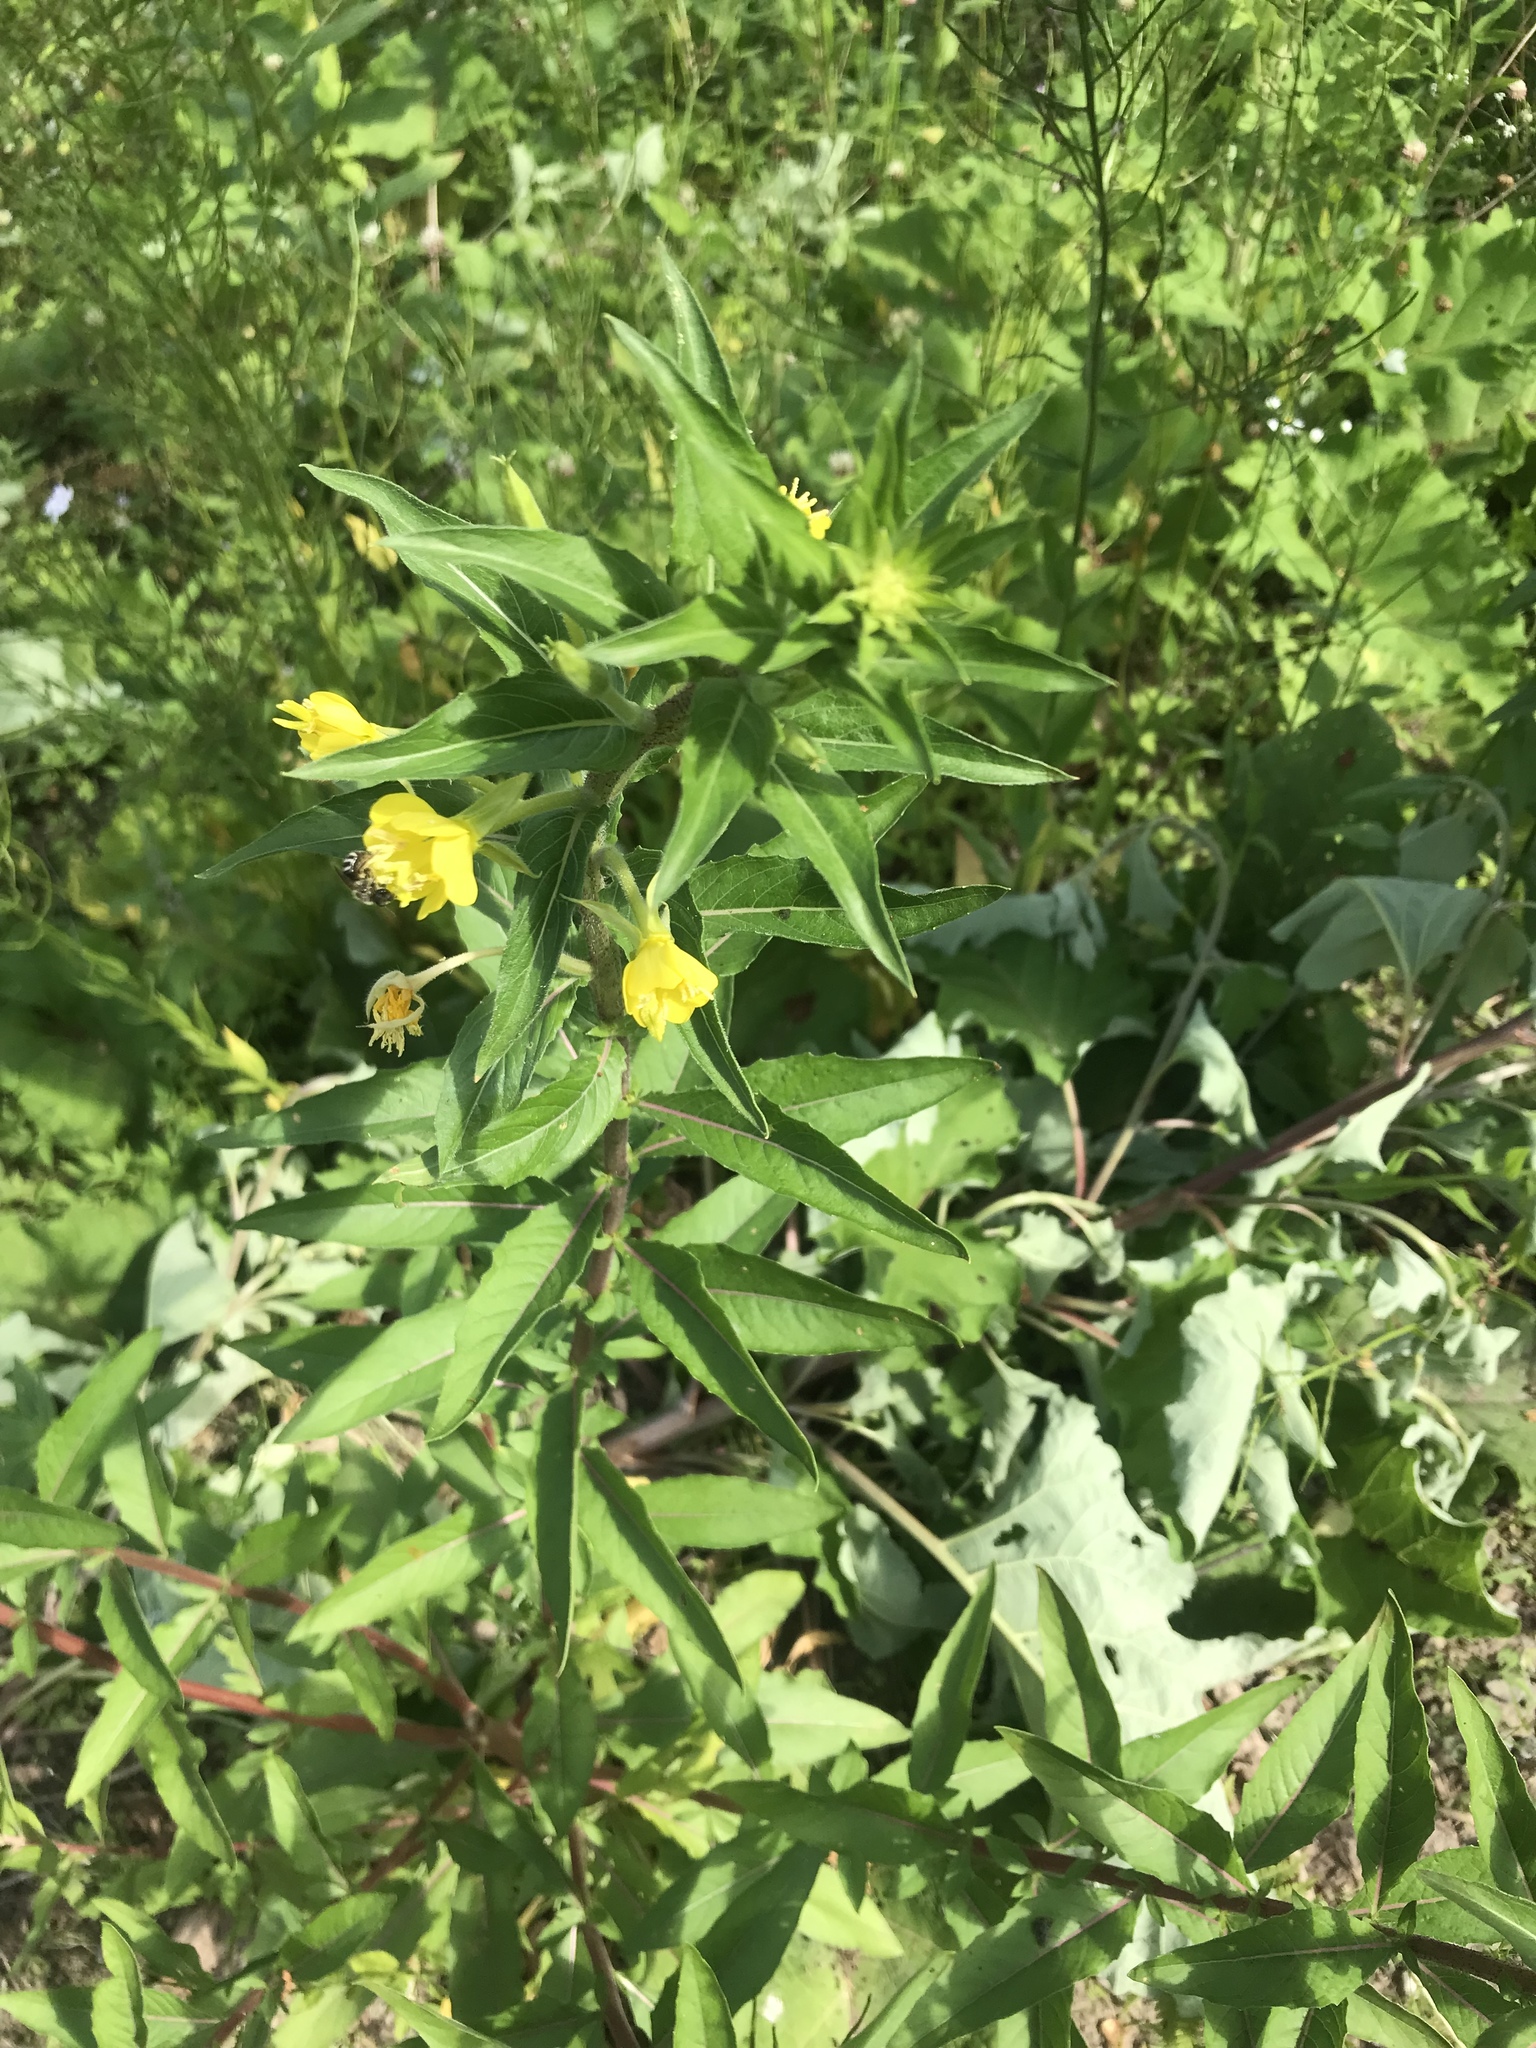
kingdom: Plantae
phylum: Tracheophyta
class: Magnoliopsida
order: Myrtales
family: Onagraceae
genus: Oenothera
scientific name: Oenothera parviflora
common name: Least evening-primrose
